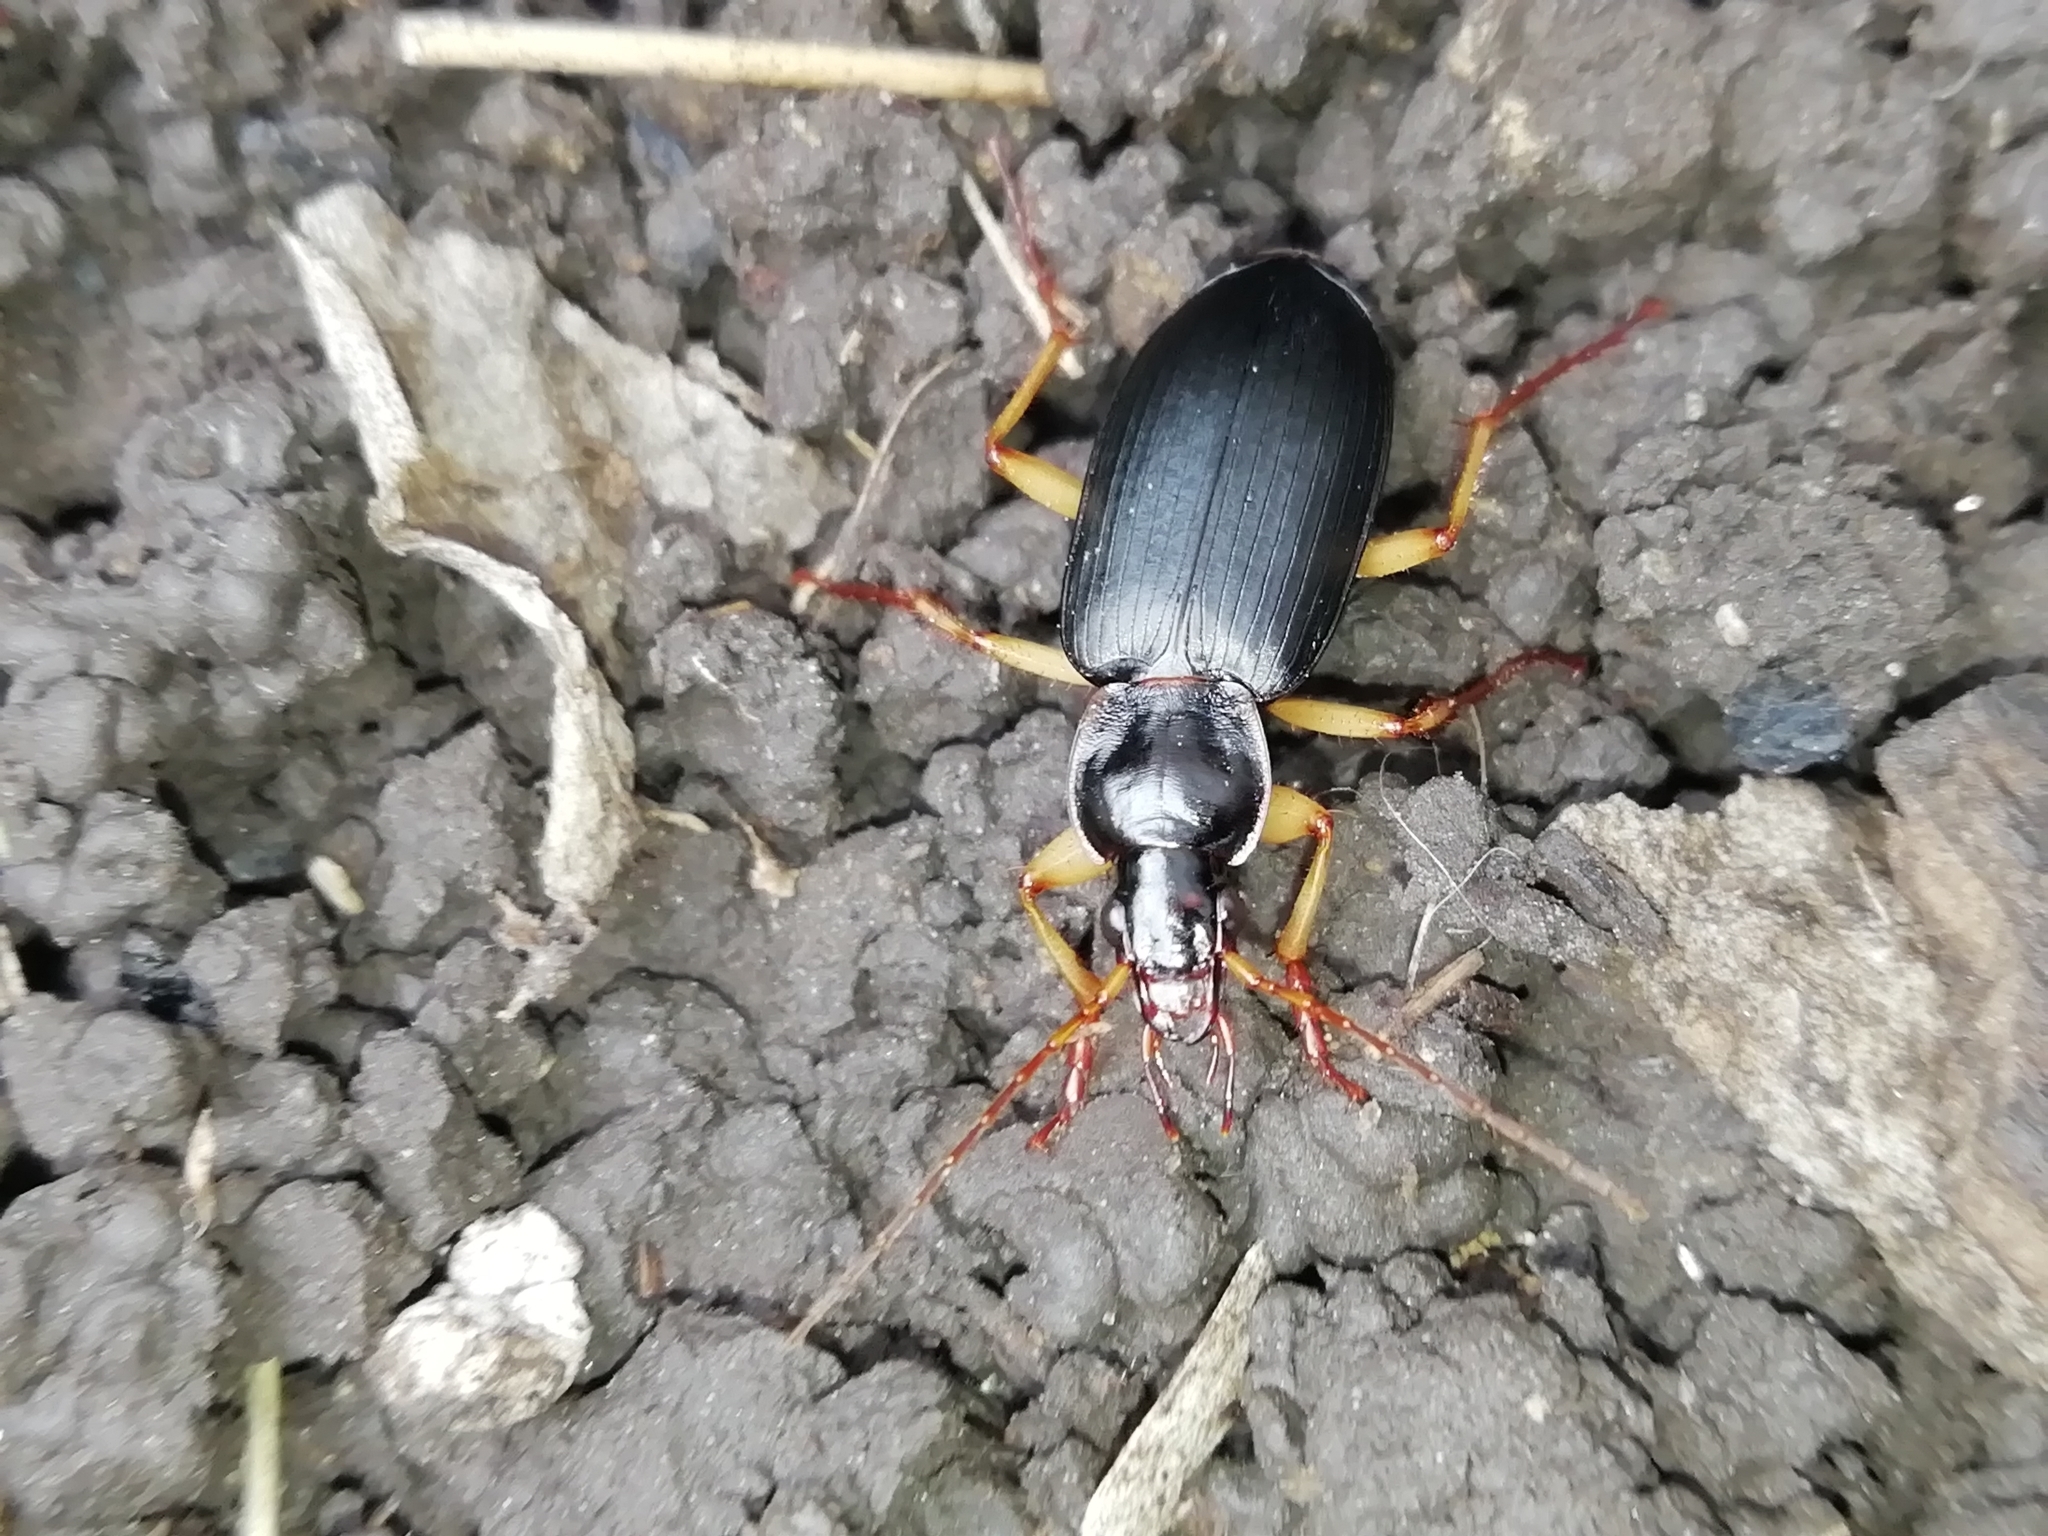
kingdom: Animalia
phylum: Arthropoda
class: Insecta
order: Coleoptera
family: Carabidae
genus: Dolichus
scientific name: Dolichus halensis
